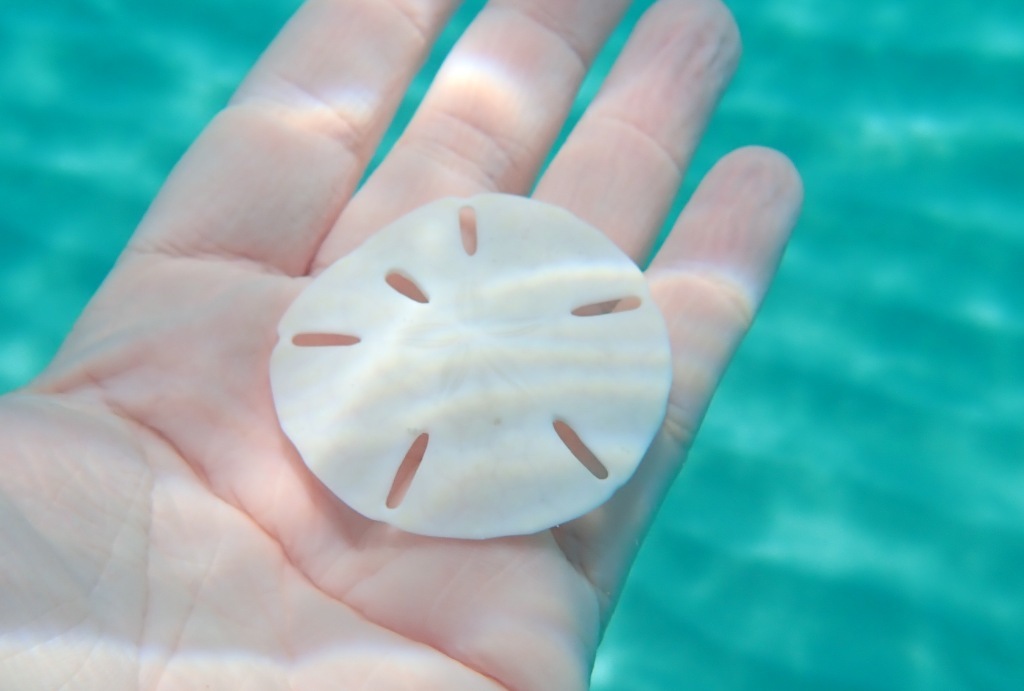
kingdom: Animalia
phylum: Echinodermata
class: Echinoidea
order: Echinolampadacea
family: Mellitidae
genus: Leodia
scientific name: Leodia sexiesperforata
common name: Sand dollar
